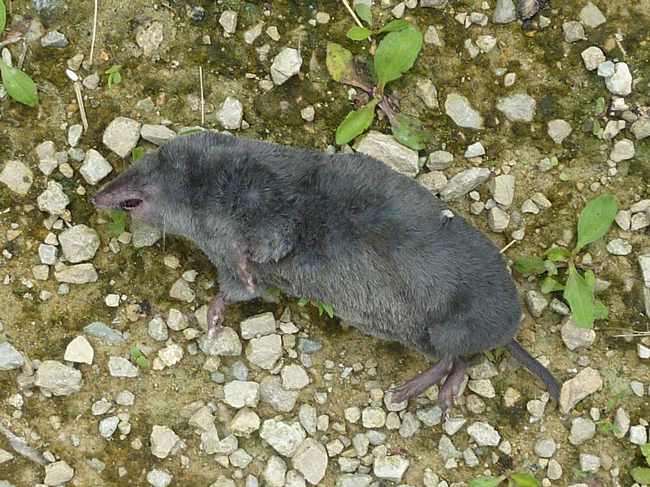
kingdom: Animalia
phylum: Chordata
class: Mammalia
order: Soricomorpha
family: Soricidae
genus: Blarina
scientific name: Blarina brevicauda
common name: Northern short-tailed shrew
